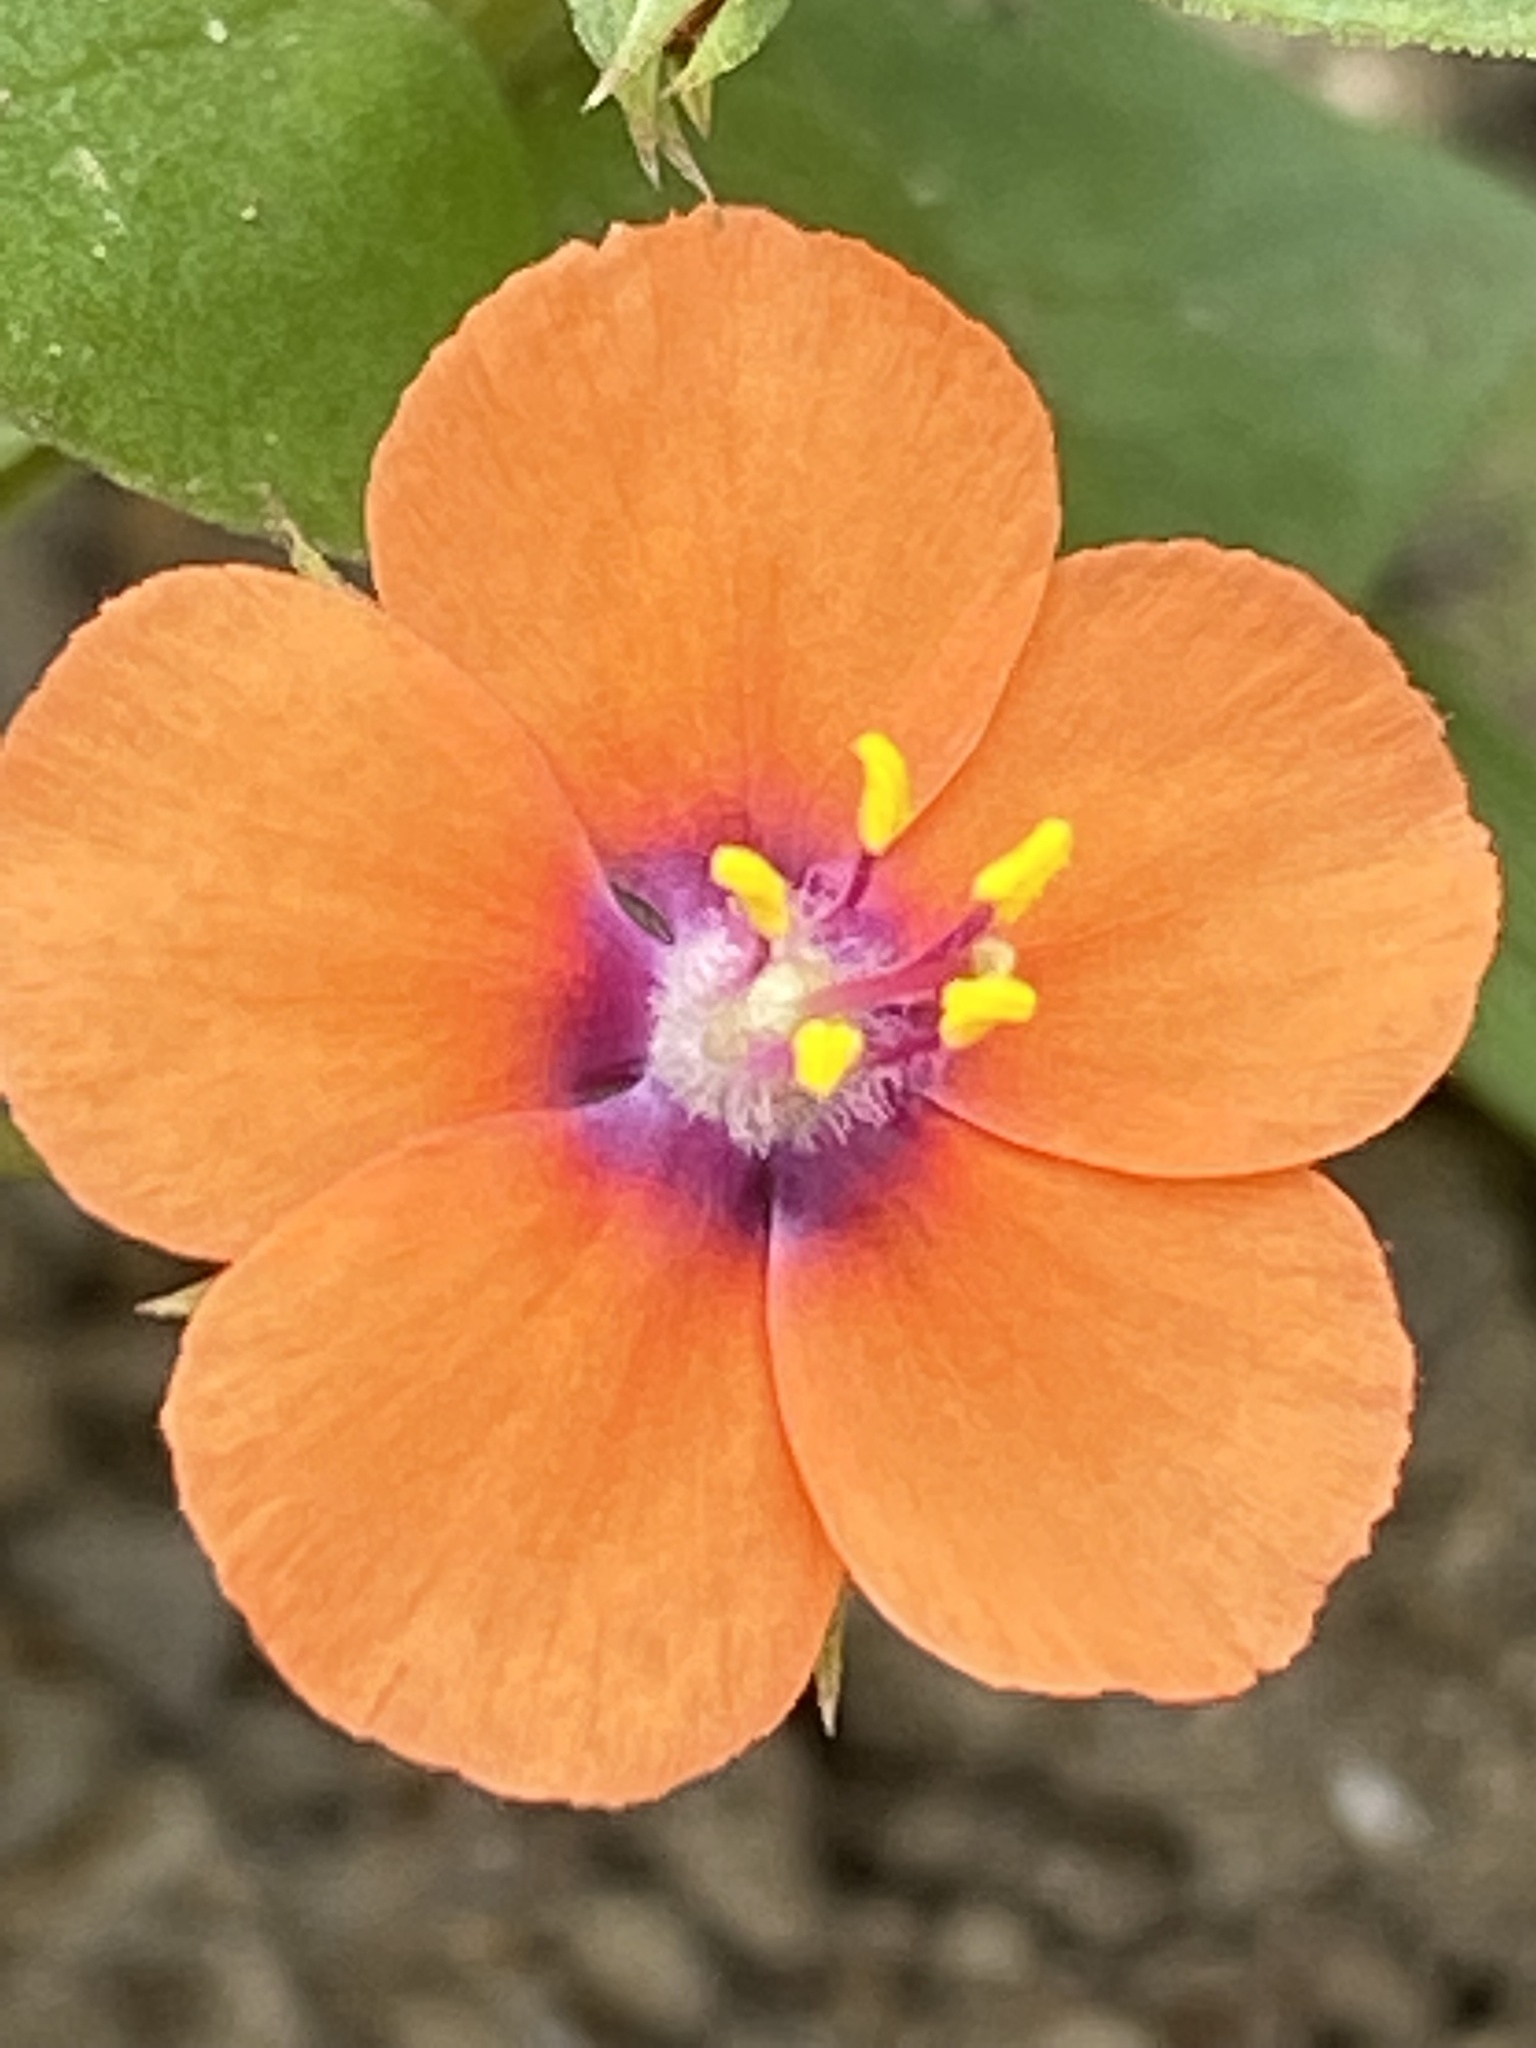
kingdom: Plantae
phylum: Tracheophyta
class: Magnoliopsida
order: Ericales
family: Primulaceae
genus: Lysimachia
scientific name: Lysimachia arvensis
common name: Scarlet pimpernel
